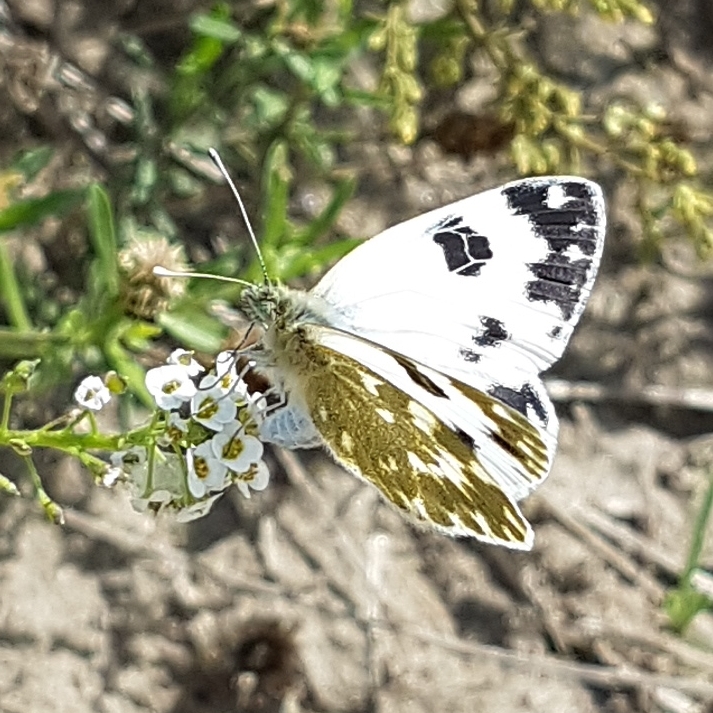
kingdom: Animalia
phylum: Arthropoda
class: Insecta
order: Lepidoptera
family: Pieridae
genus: Pontia
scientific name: Pontia daplidice
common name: Bath white
